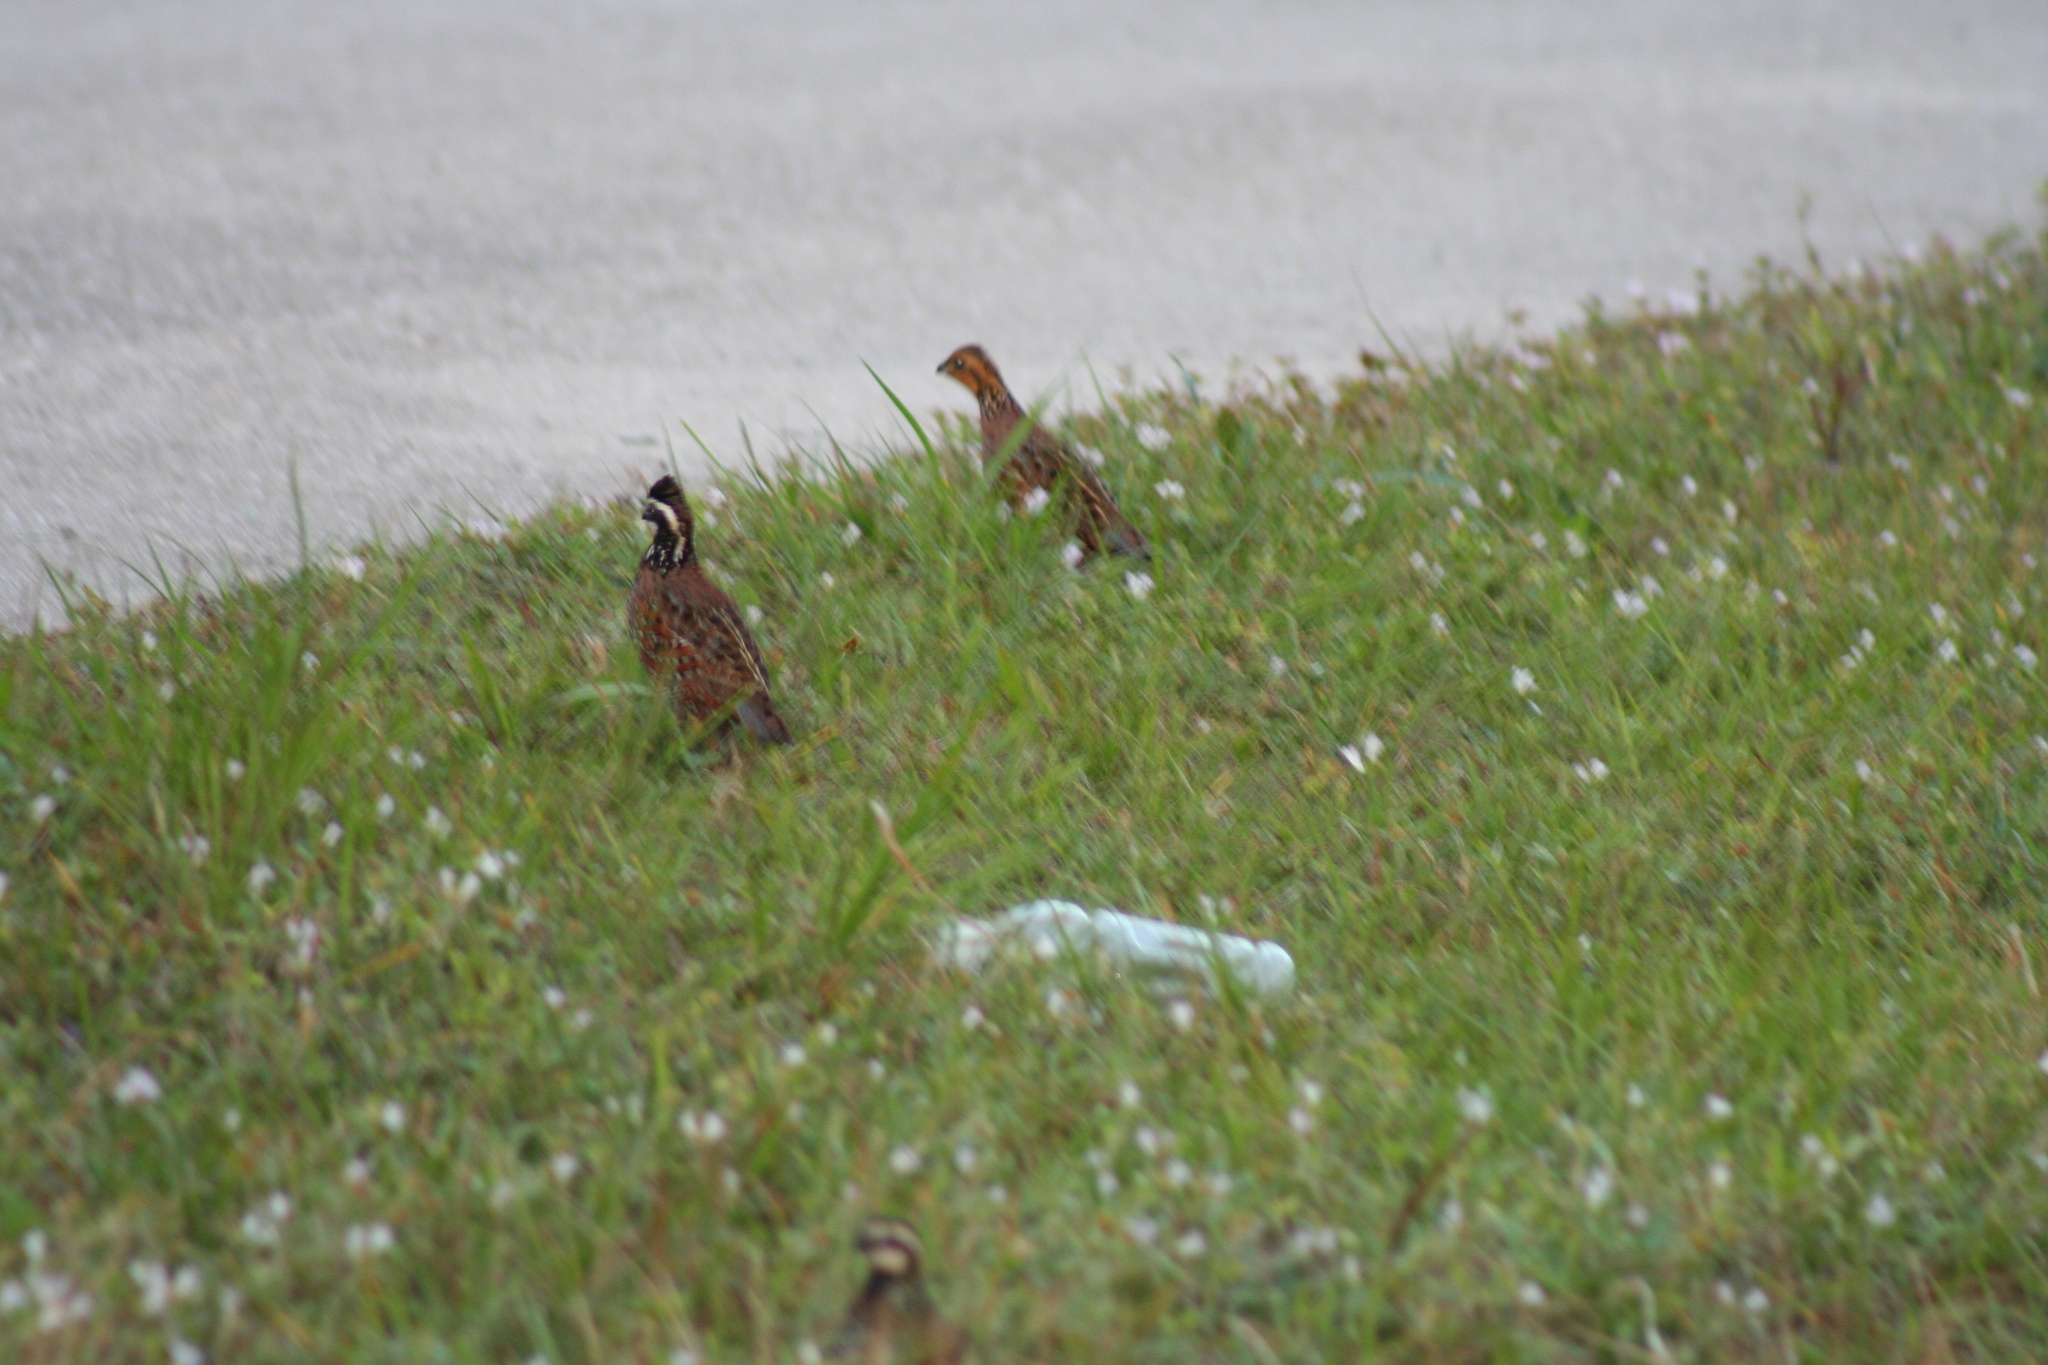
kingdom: Animalia
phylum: Chordata
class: Aves
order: Galliformes
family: Odontophoridae
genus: Colinus
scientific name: Colinus virginianus
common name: Northern bobwhite
